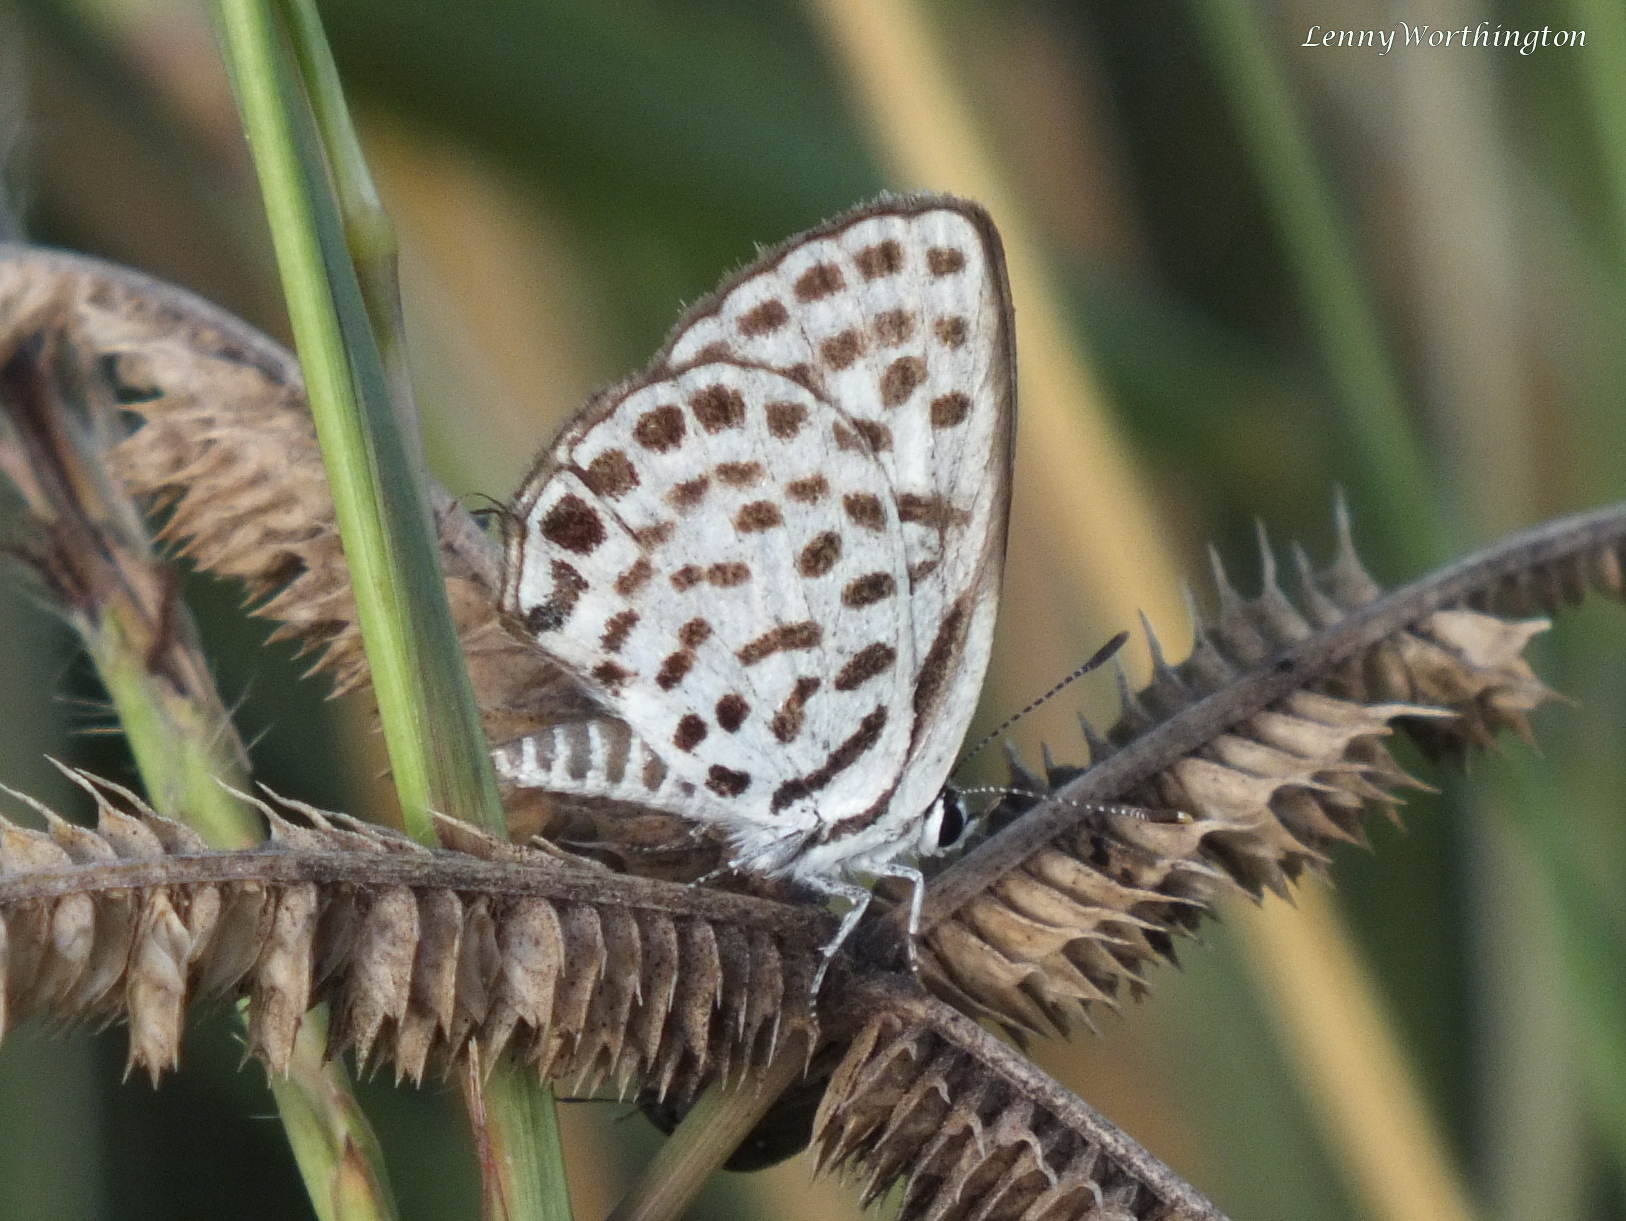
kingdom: Animalia
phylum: Arthropoda
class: Insecta
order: Lepidoptera
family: Lycaenidae
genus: Tarucus
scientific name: Tarucus callinara
